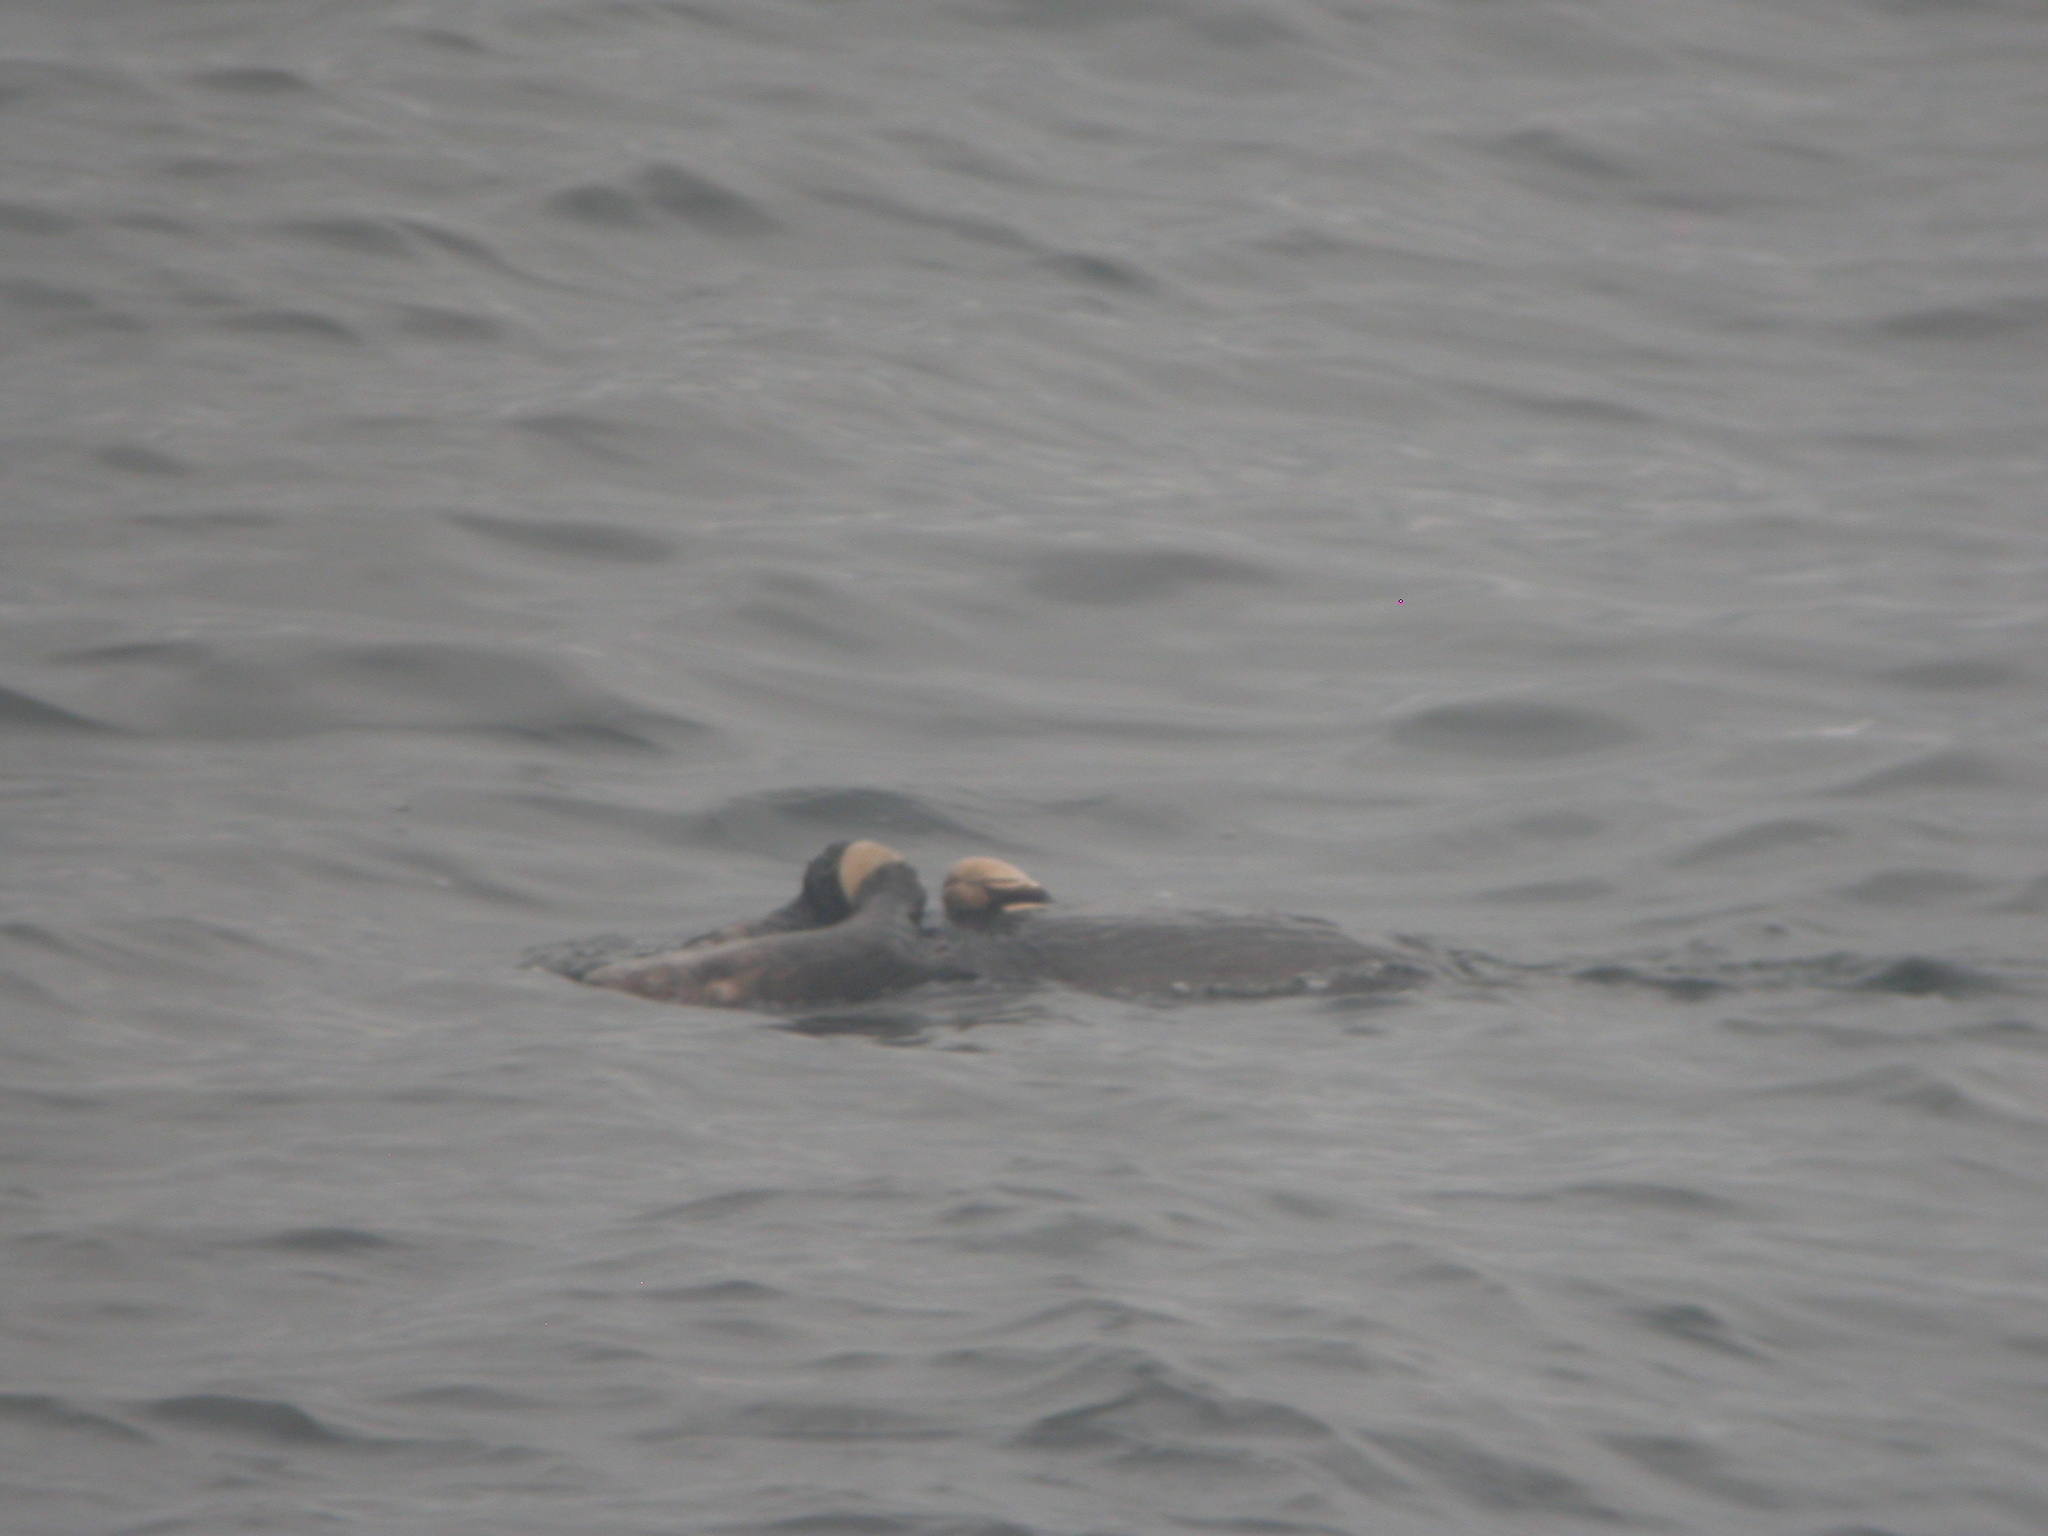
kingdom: Animalia
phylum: Chordata
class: Mammalia
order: Carnivora
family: Mustelidae
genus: Enhydra
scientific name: Enhydra lutris
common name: Sea otter
